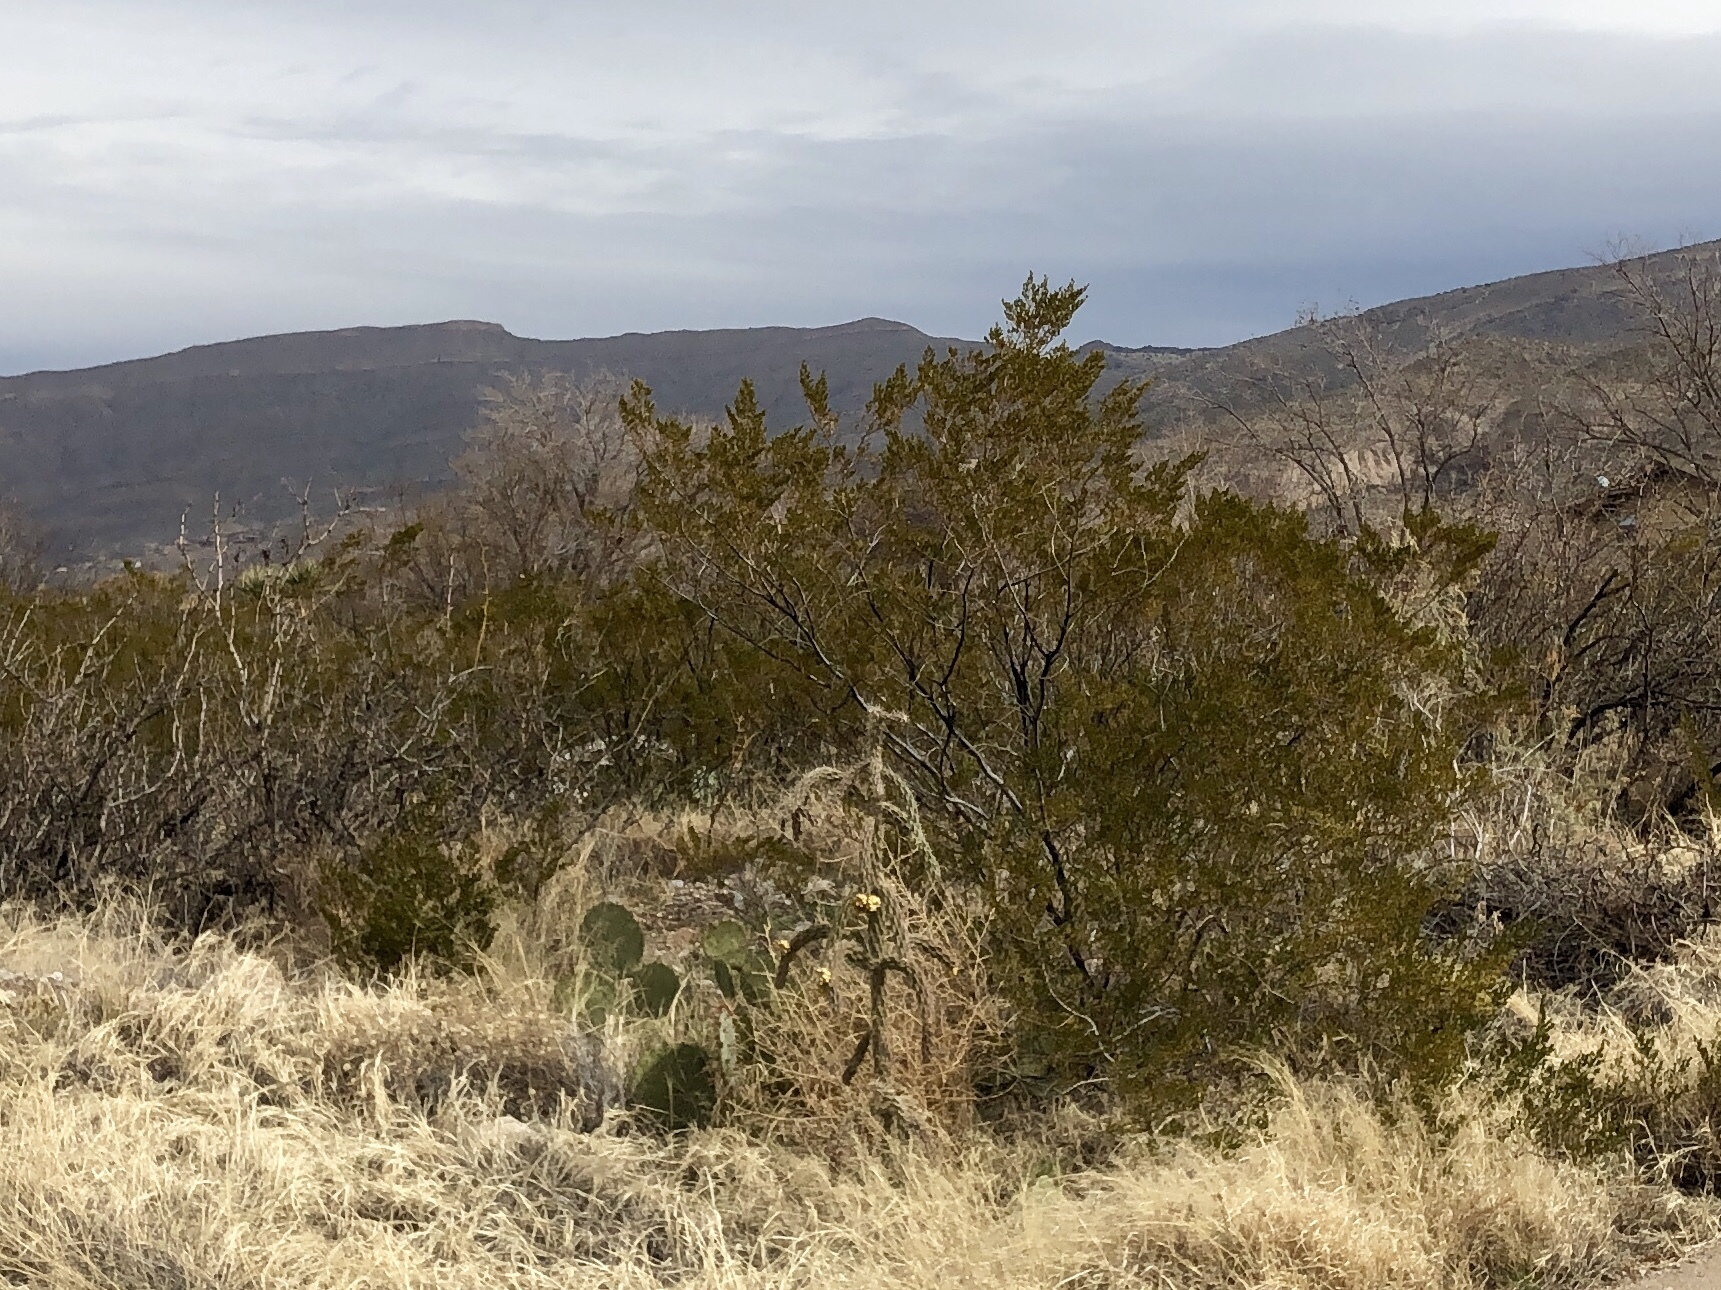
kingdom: Plantae
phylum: Tracheophyta
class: Magnoliopsida
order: Zygophyllales
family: Zygophyllaceae
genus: Larrea
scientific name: Larrea tridentata
